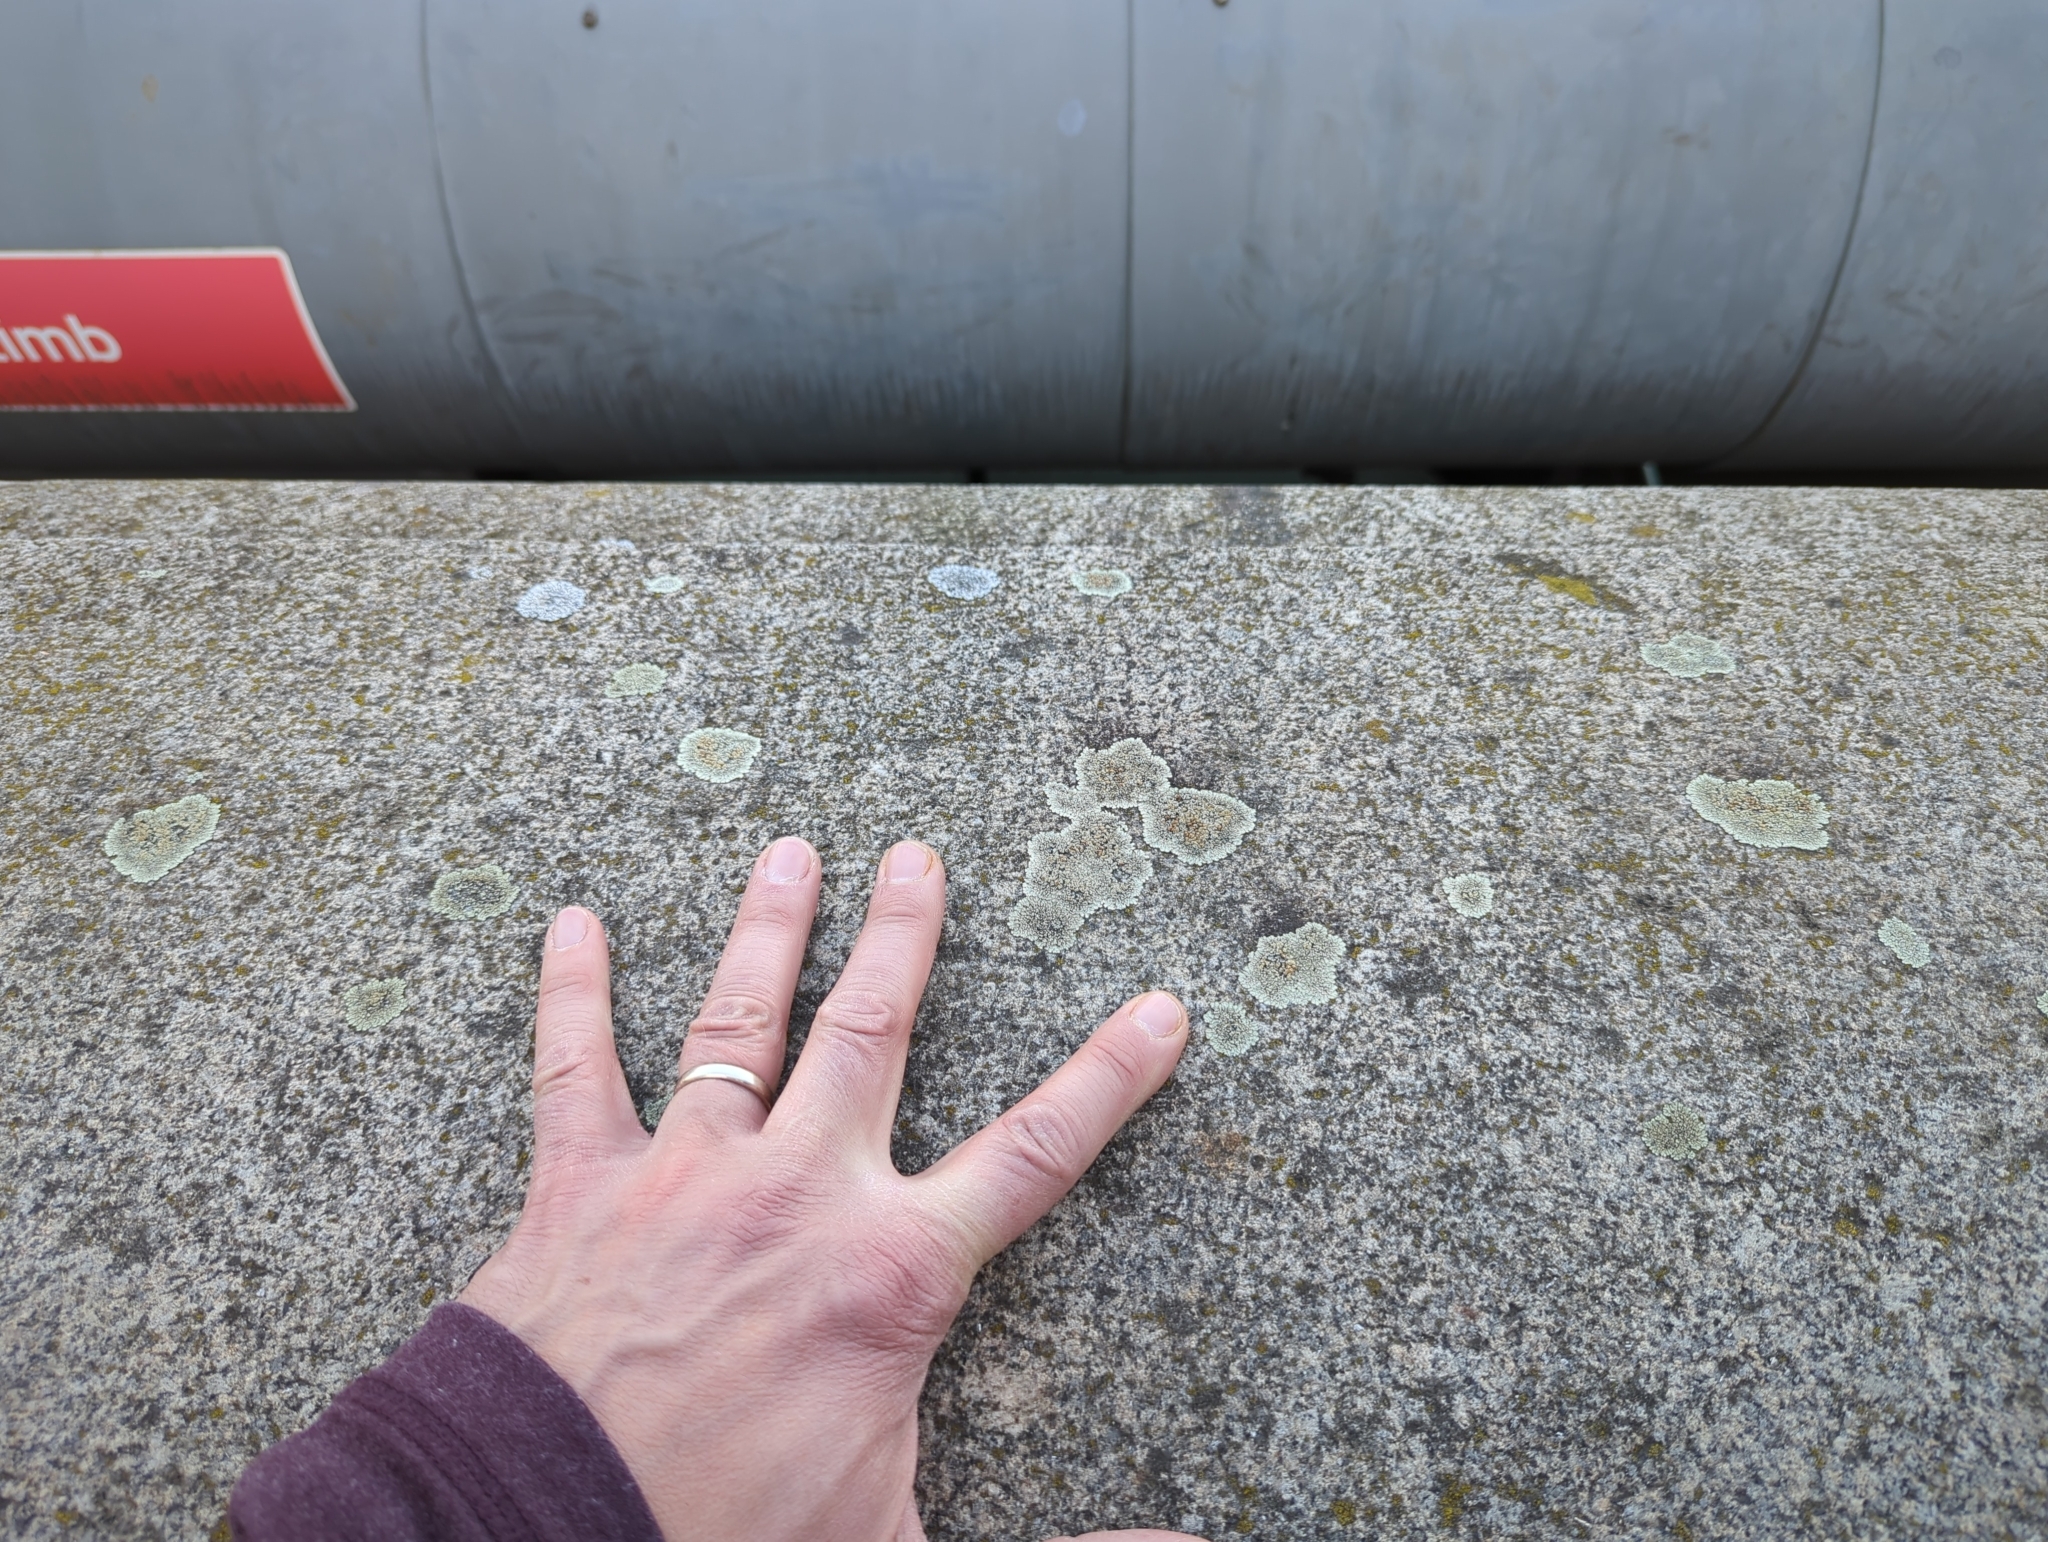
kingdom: Fungi
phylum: Ascomycota
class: Lecanoromycetes
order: Lecanorales
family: Lecanoraceae
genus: Protoparmeliopsis
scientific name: Protoparmeliopsis muralis
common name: Stonewall rim lichen
